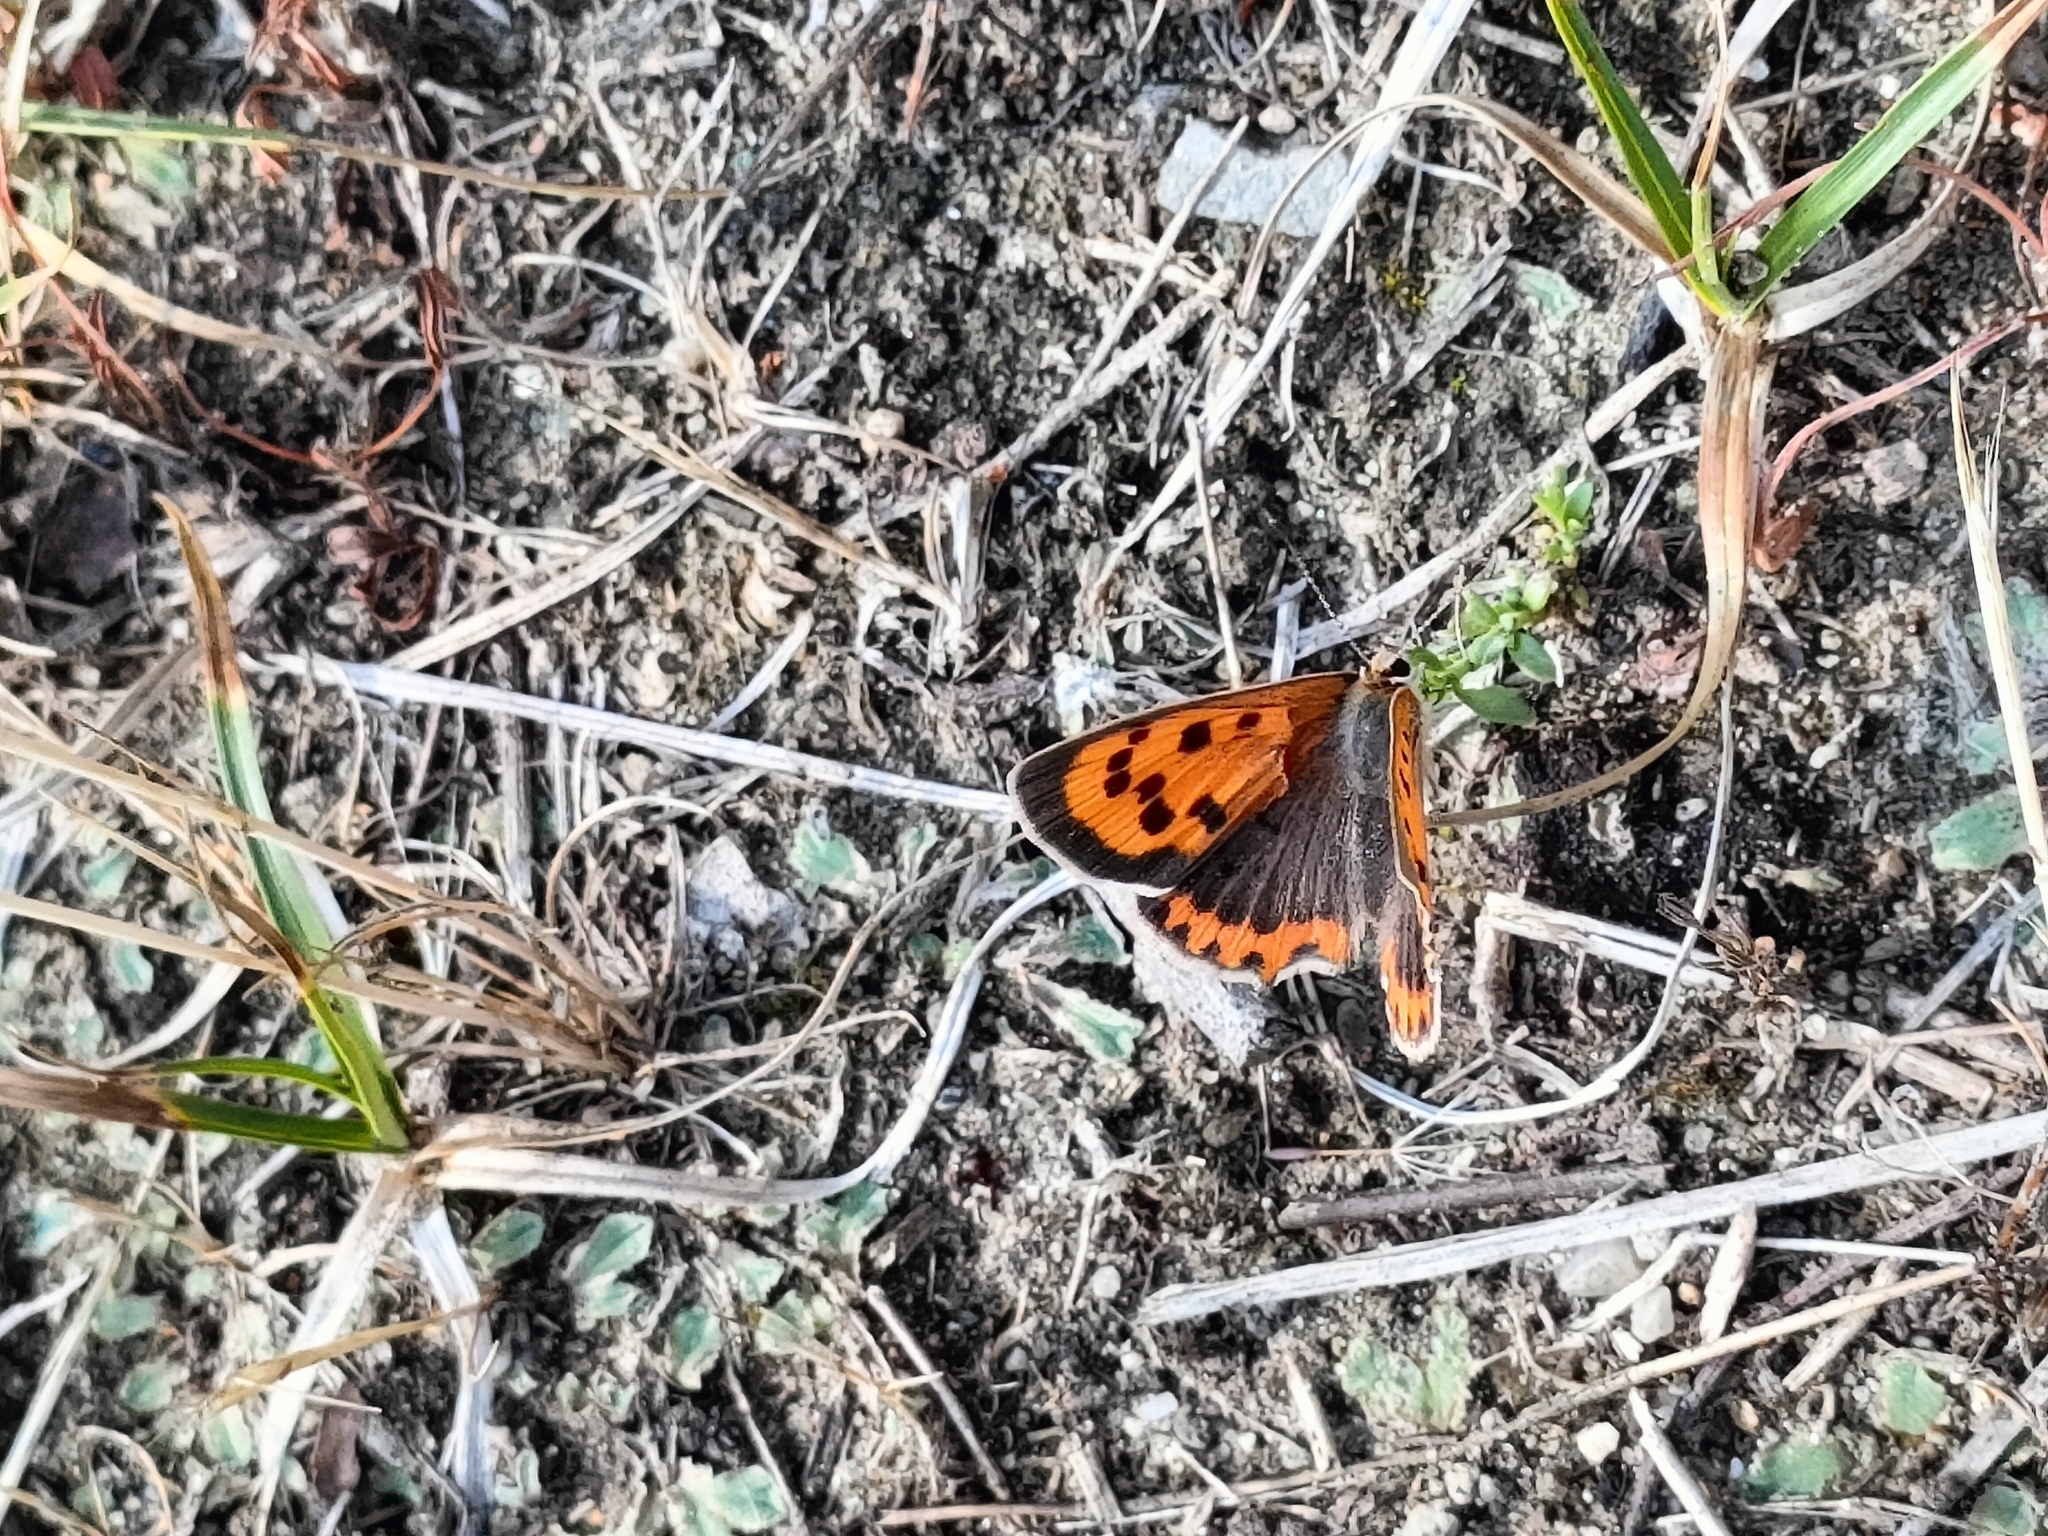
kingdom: Animalia
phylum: Arthropoda
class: Insecta
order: Lepidoptera
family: Lycaenidae
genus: Lycaena
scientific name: Lycaena phlaeas
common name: Small copper
